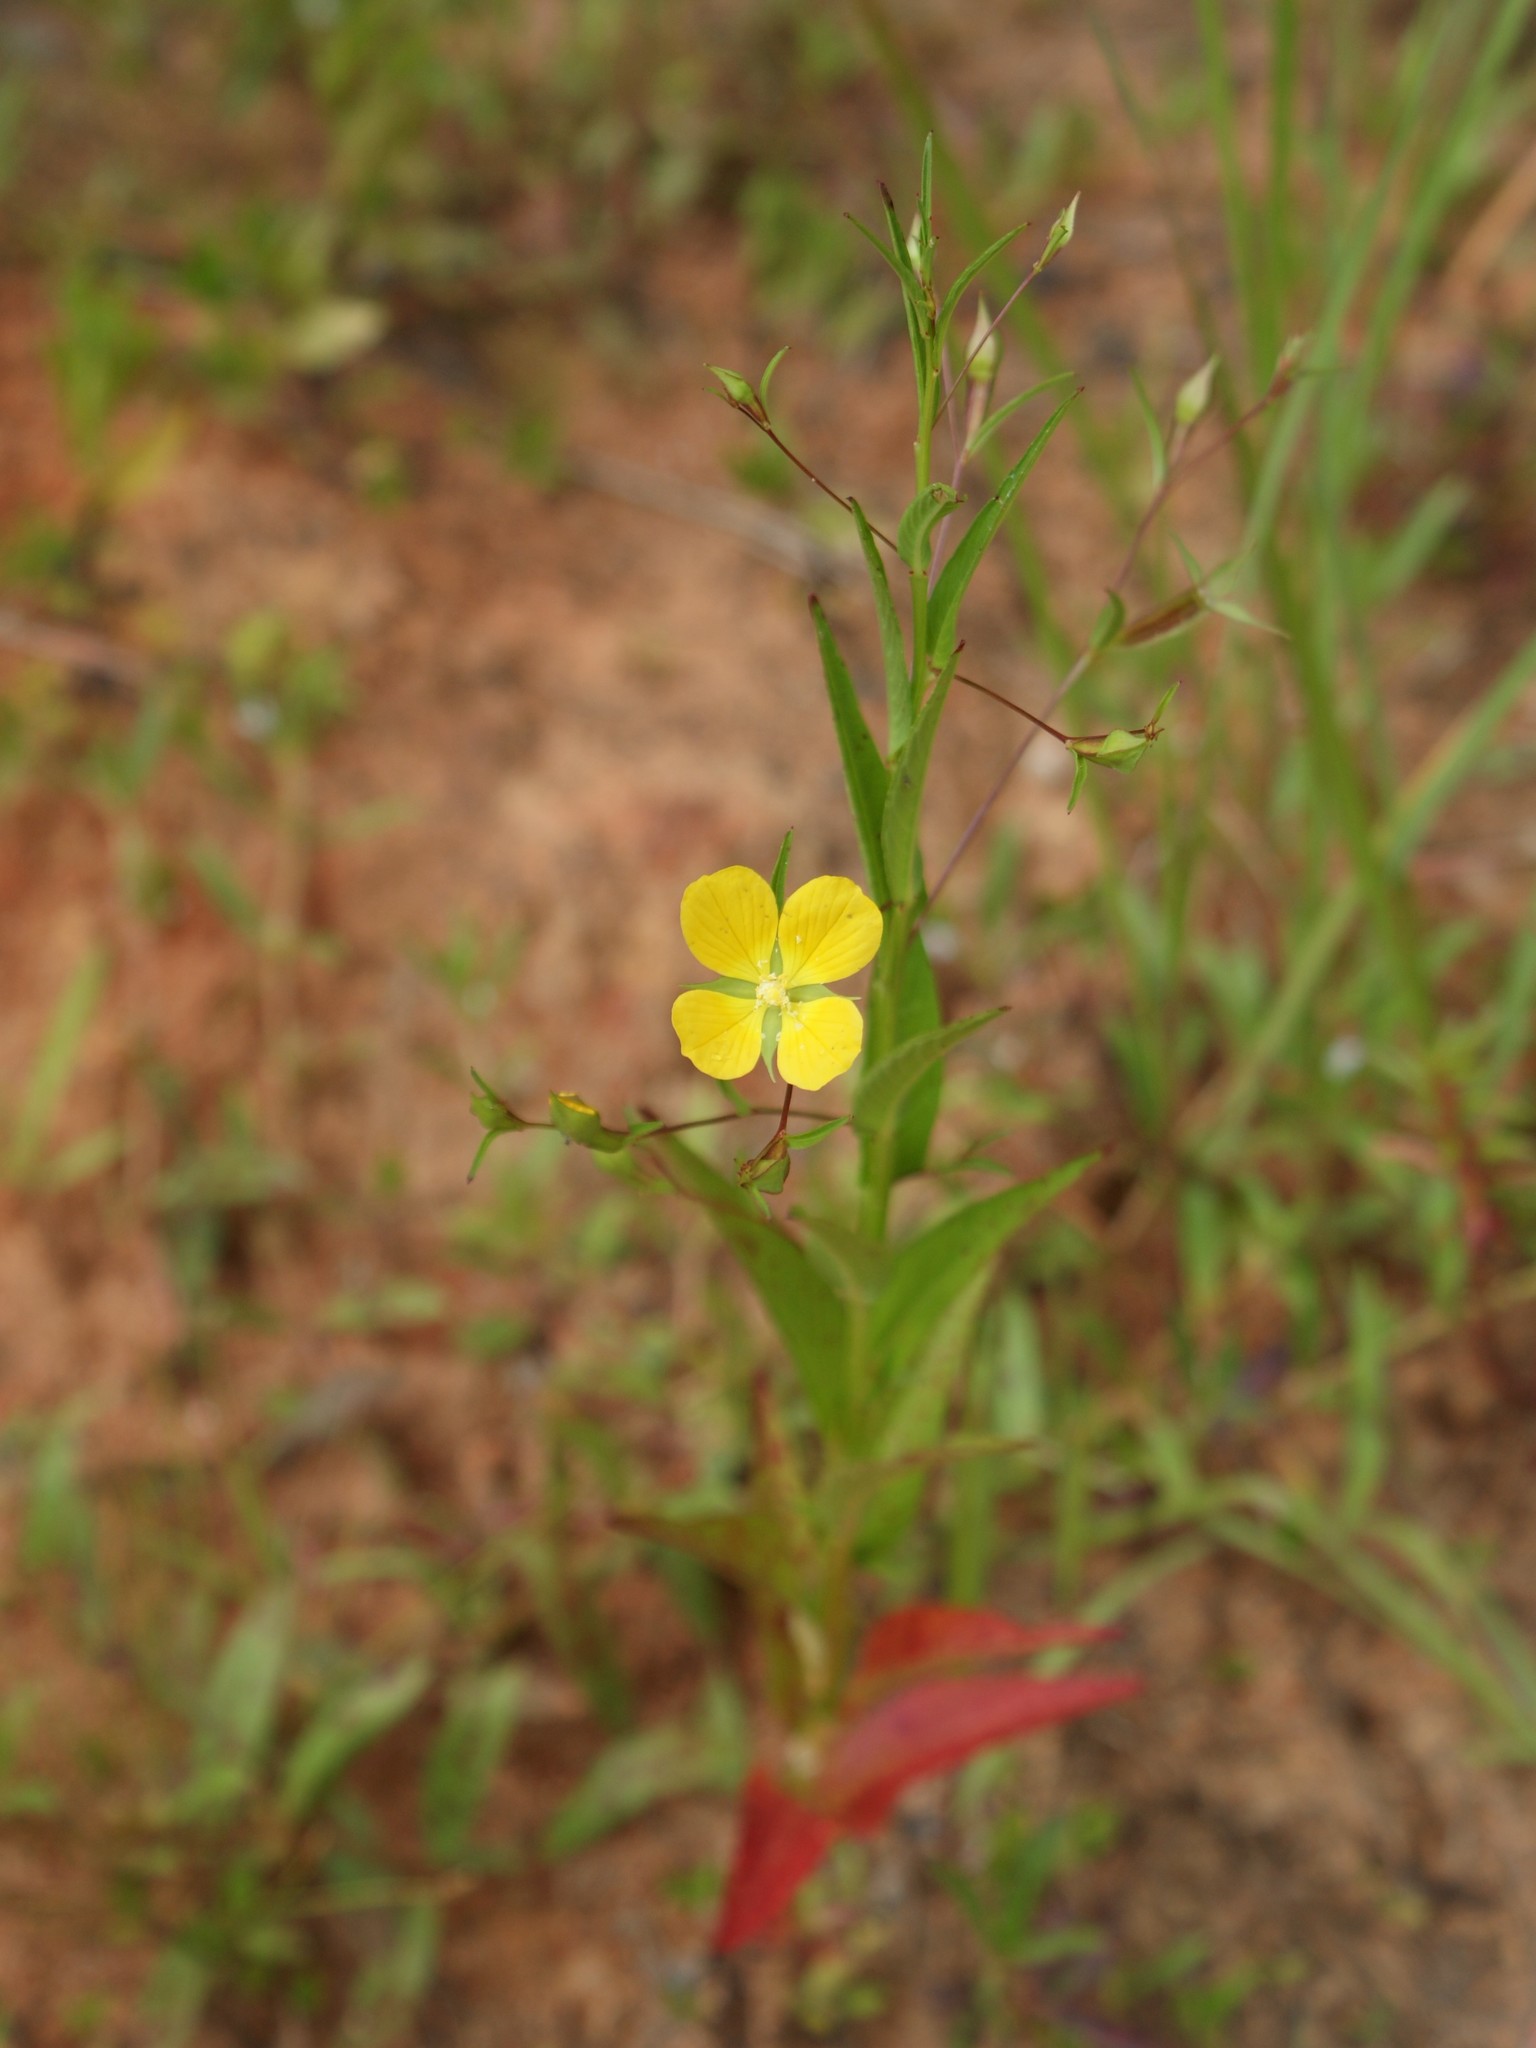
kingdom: Plantae
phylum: Tracheophyta
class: Magnoliopsida
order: Myrtales
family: Onagraceae
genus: Ludwigia
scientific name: Ludwigia decurrens
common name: Winged water-primrose
